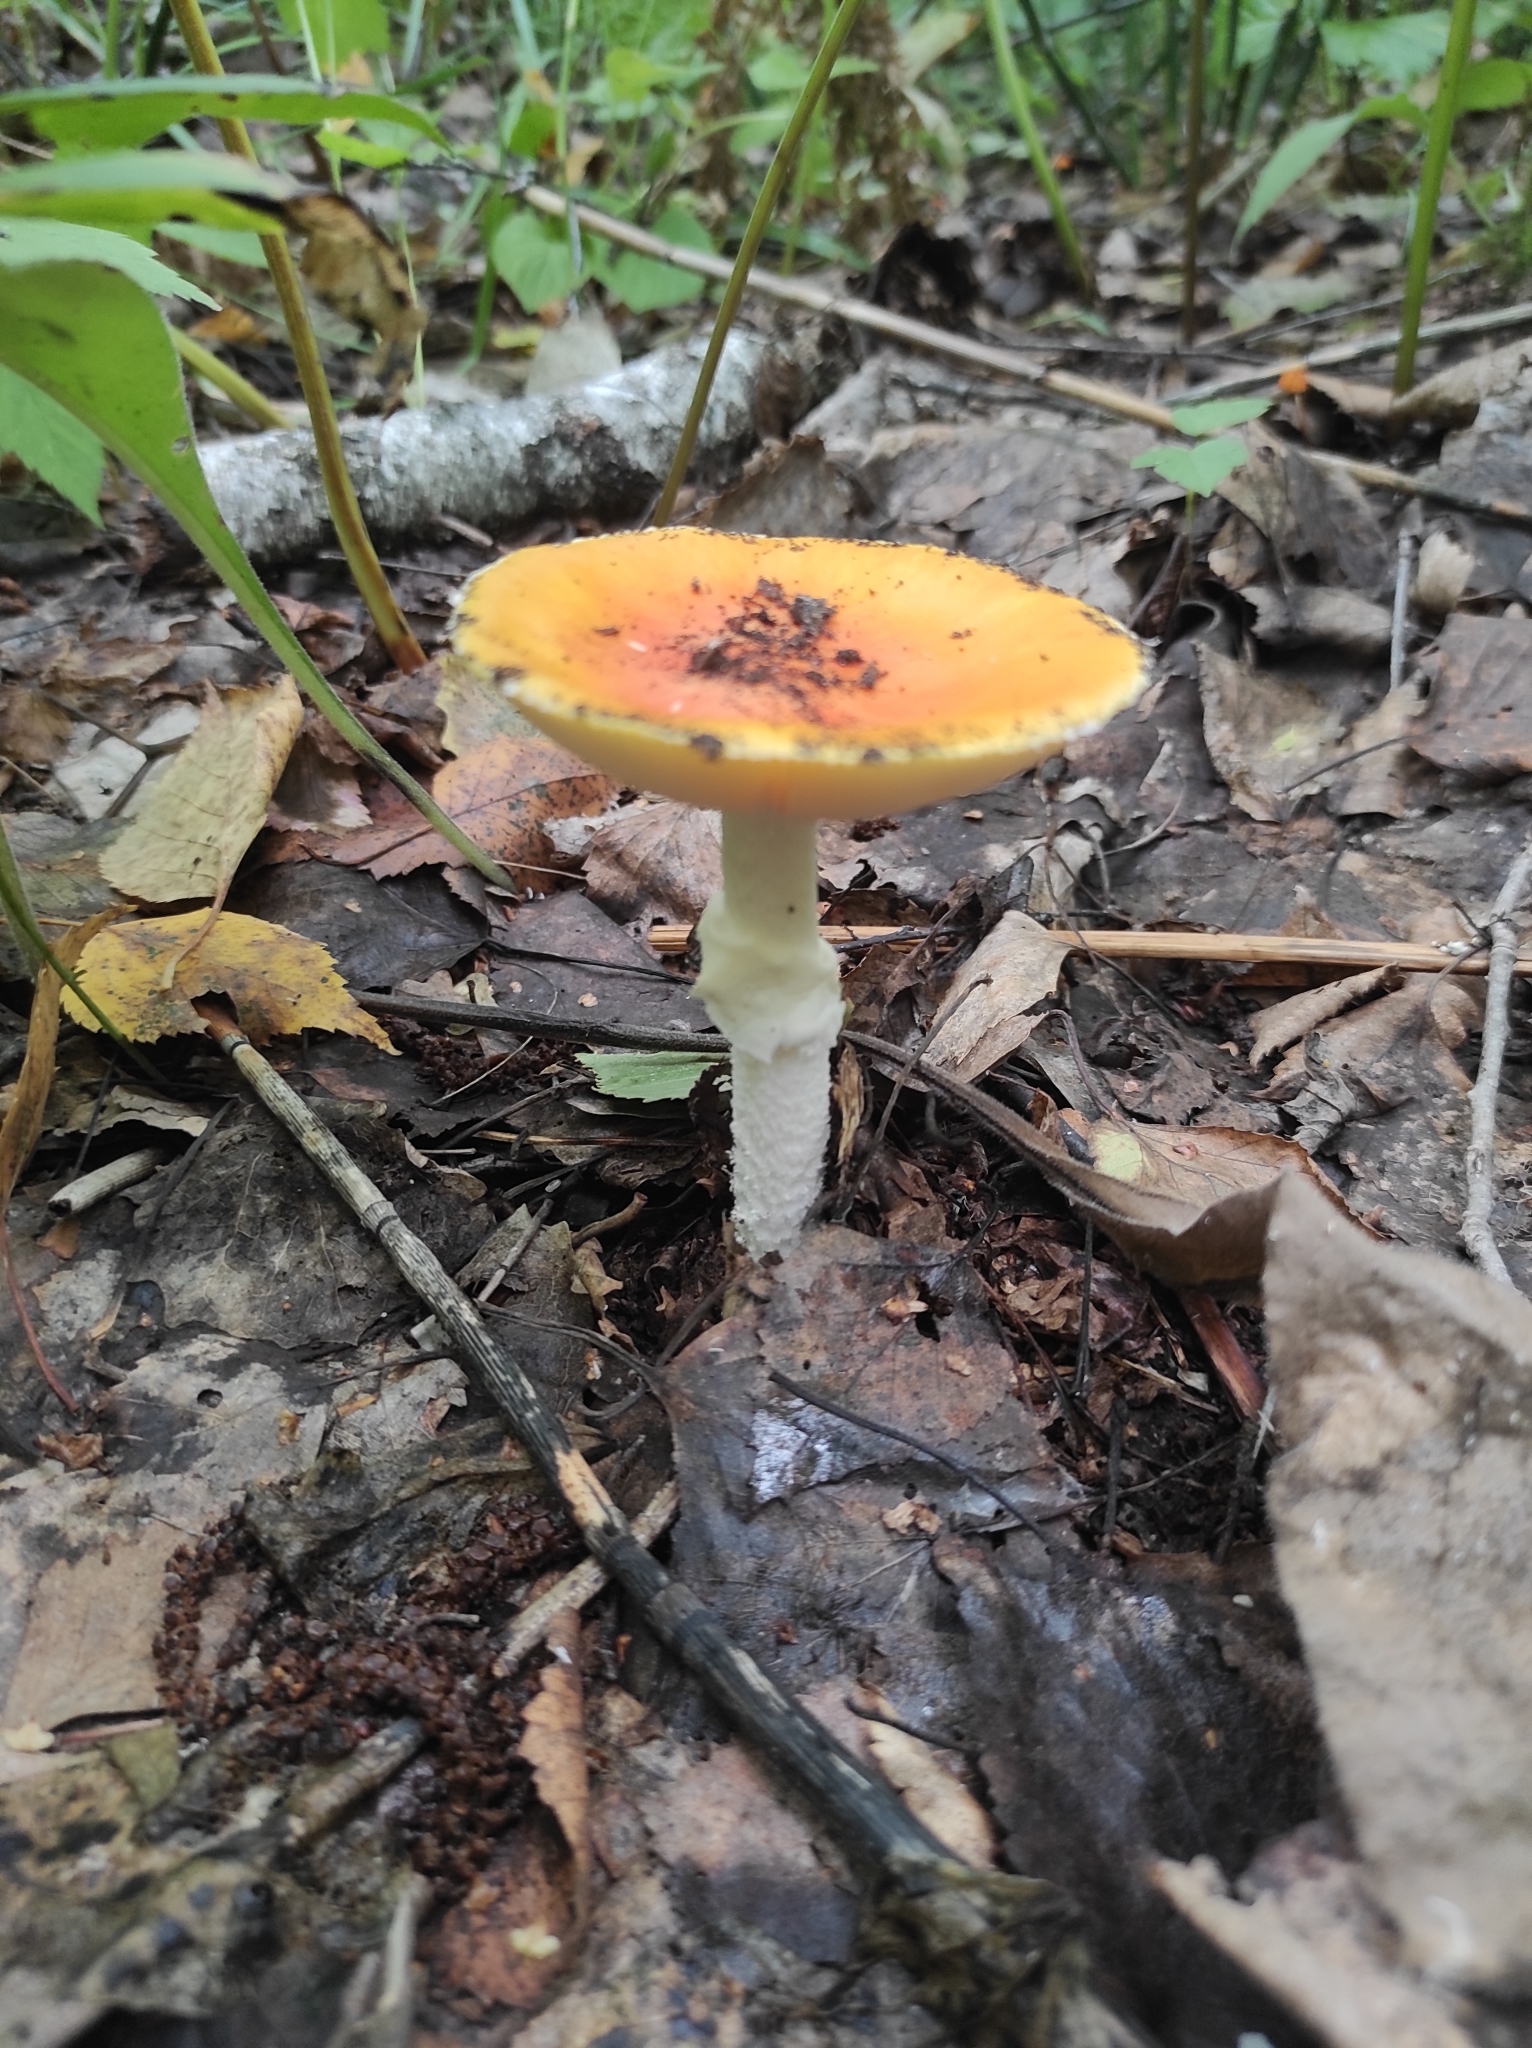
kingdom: Fungi
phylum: Basidiomycota
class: Agaricomycetes
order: Agaricales
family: Amanitaceae
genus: Amanita
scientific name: Amanita muscaria
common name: Fly agaric
